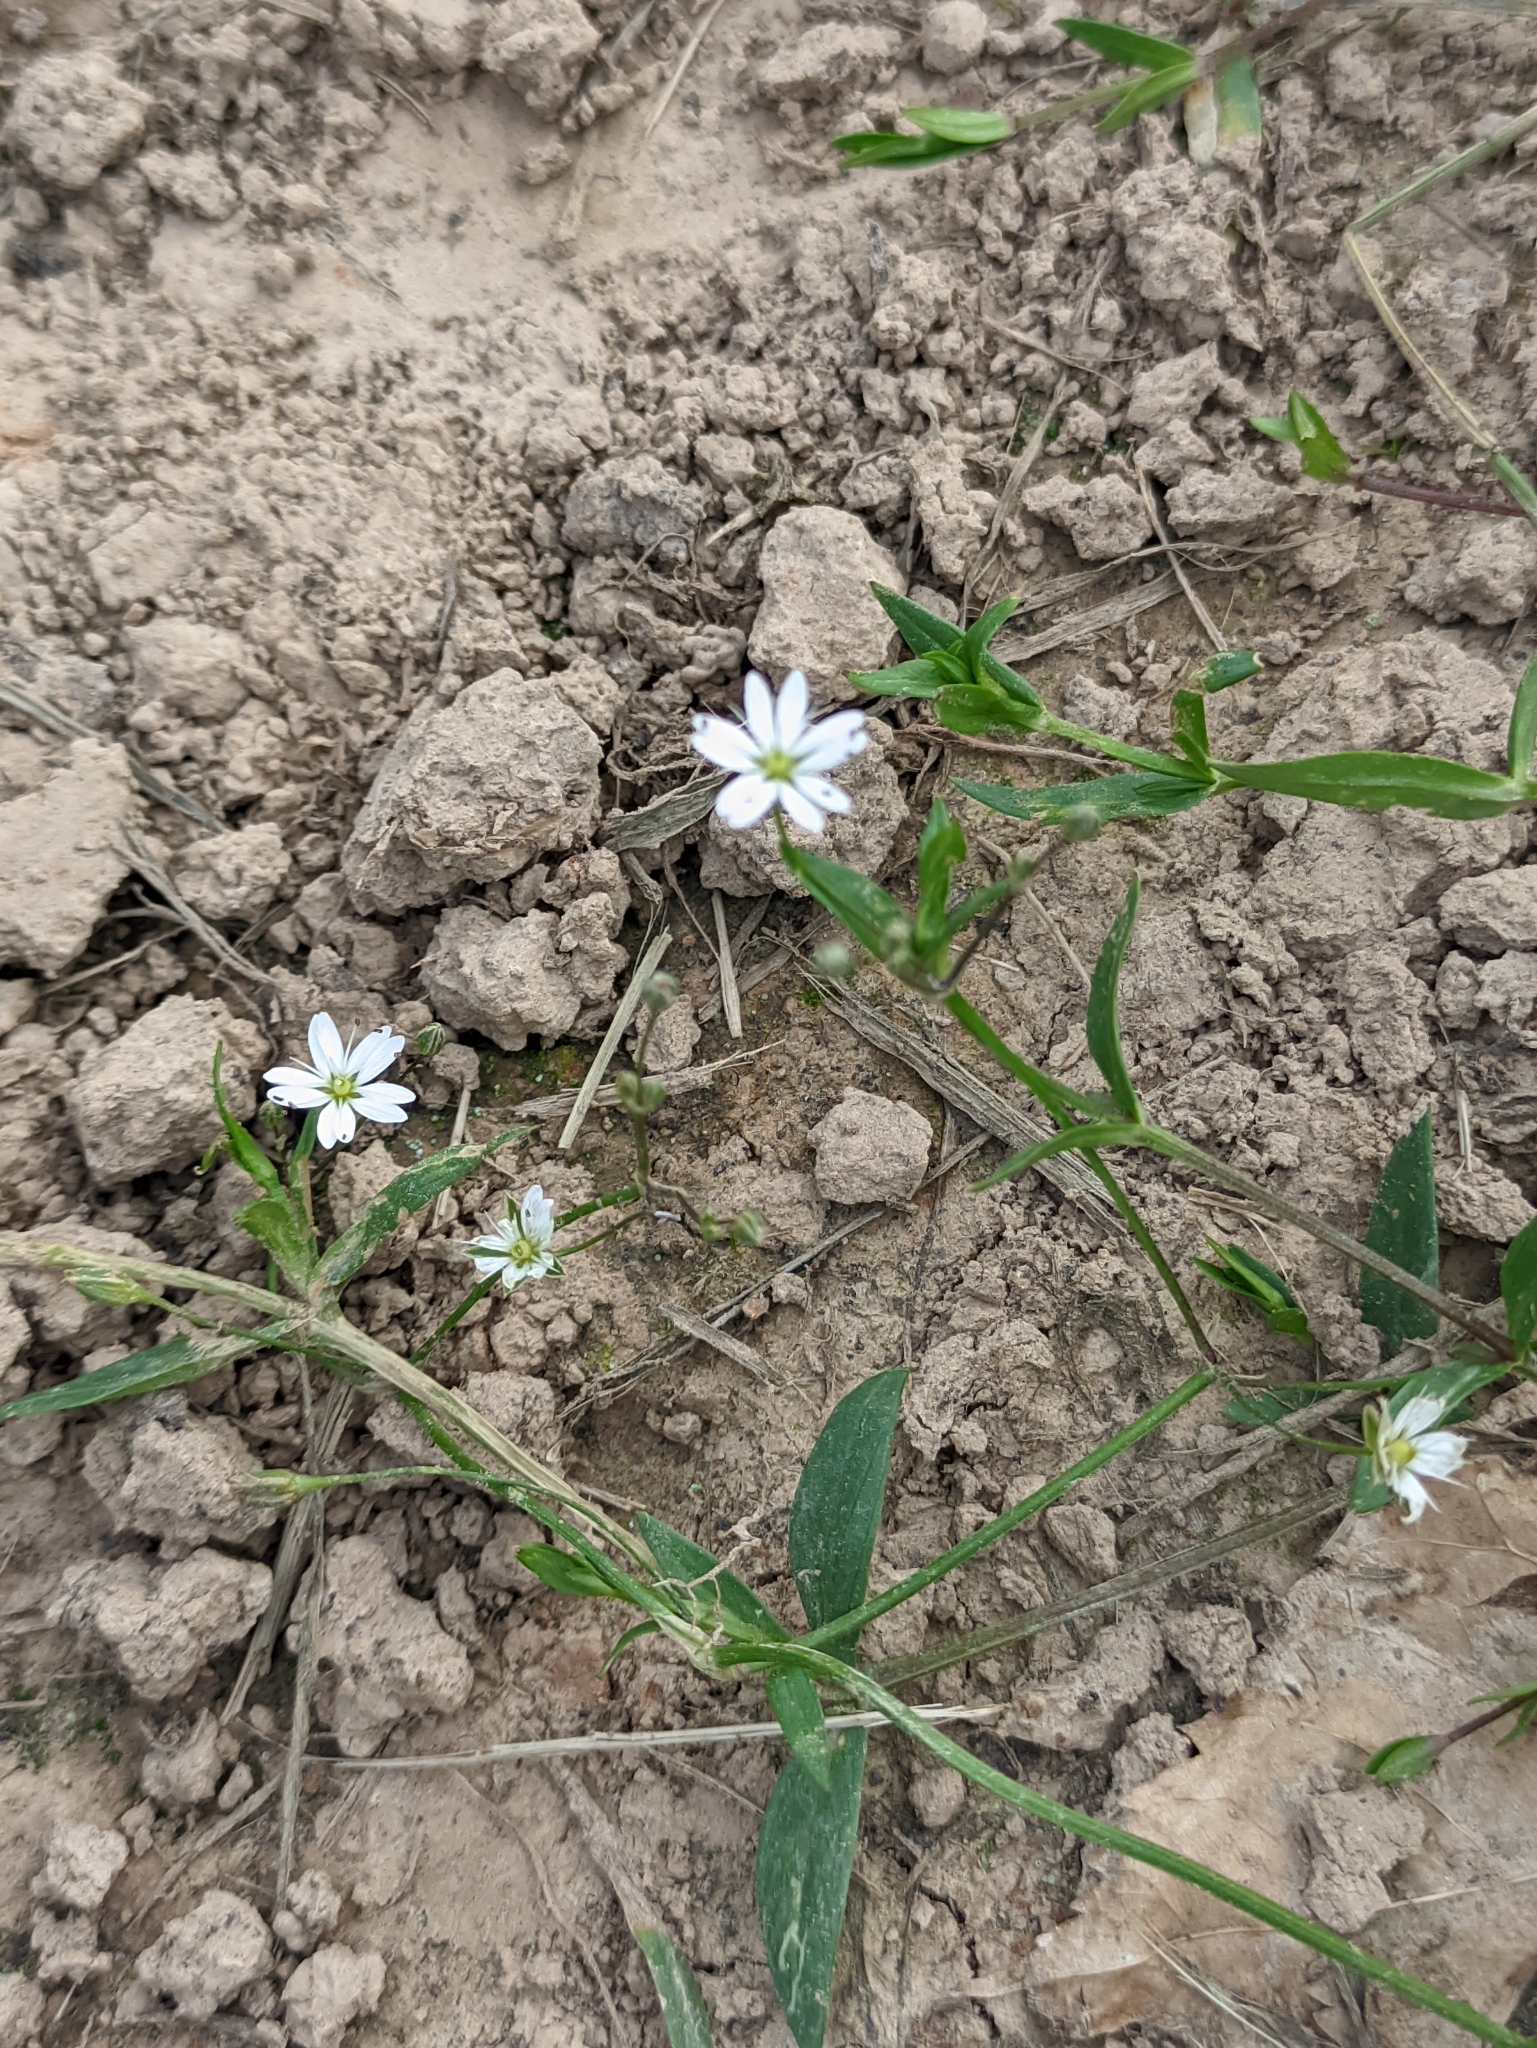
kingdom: Plantae
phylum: Tracheophyta
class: Magnoliopsida
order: Caryophyllales
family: Caryophyllaceae
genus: Stellaria
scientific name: Stellaria graminea
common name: Grass-like starwort
